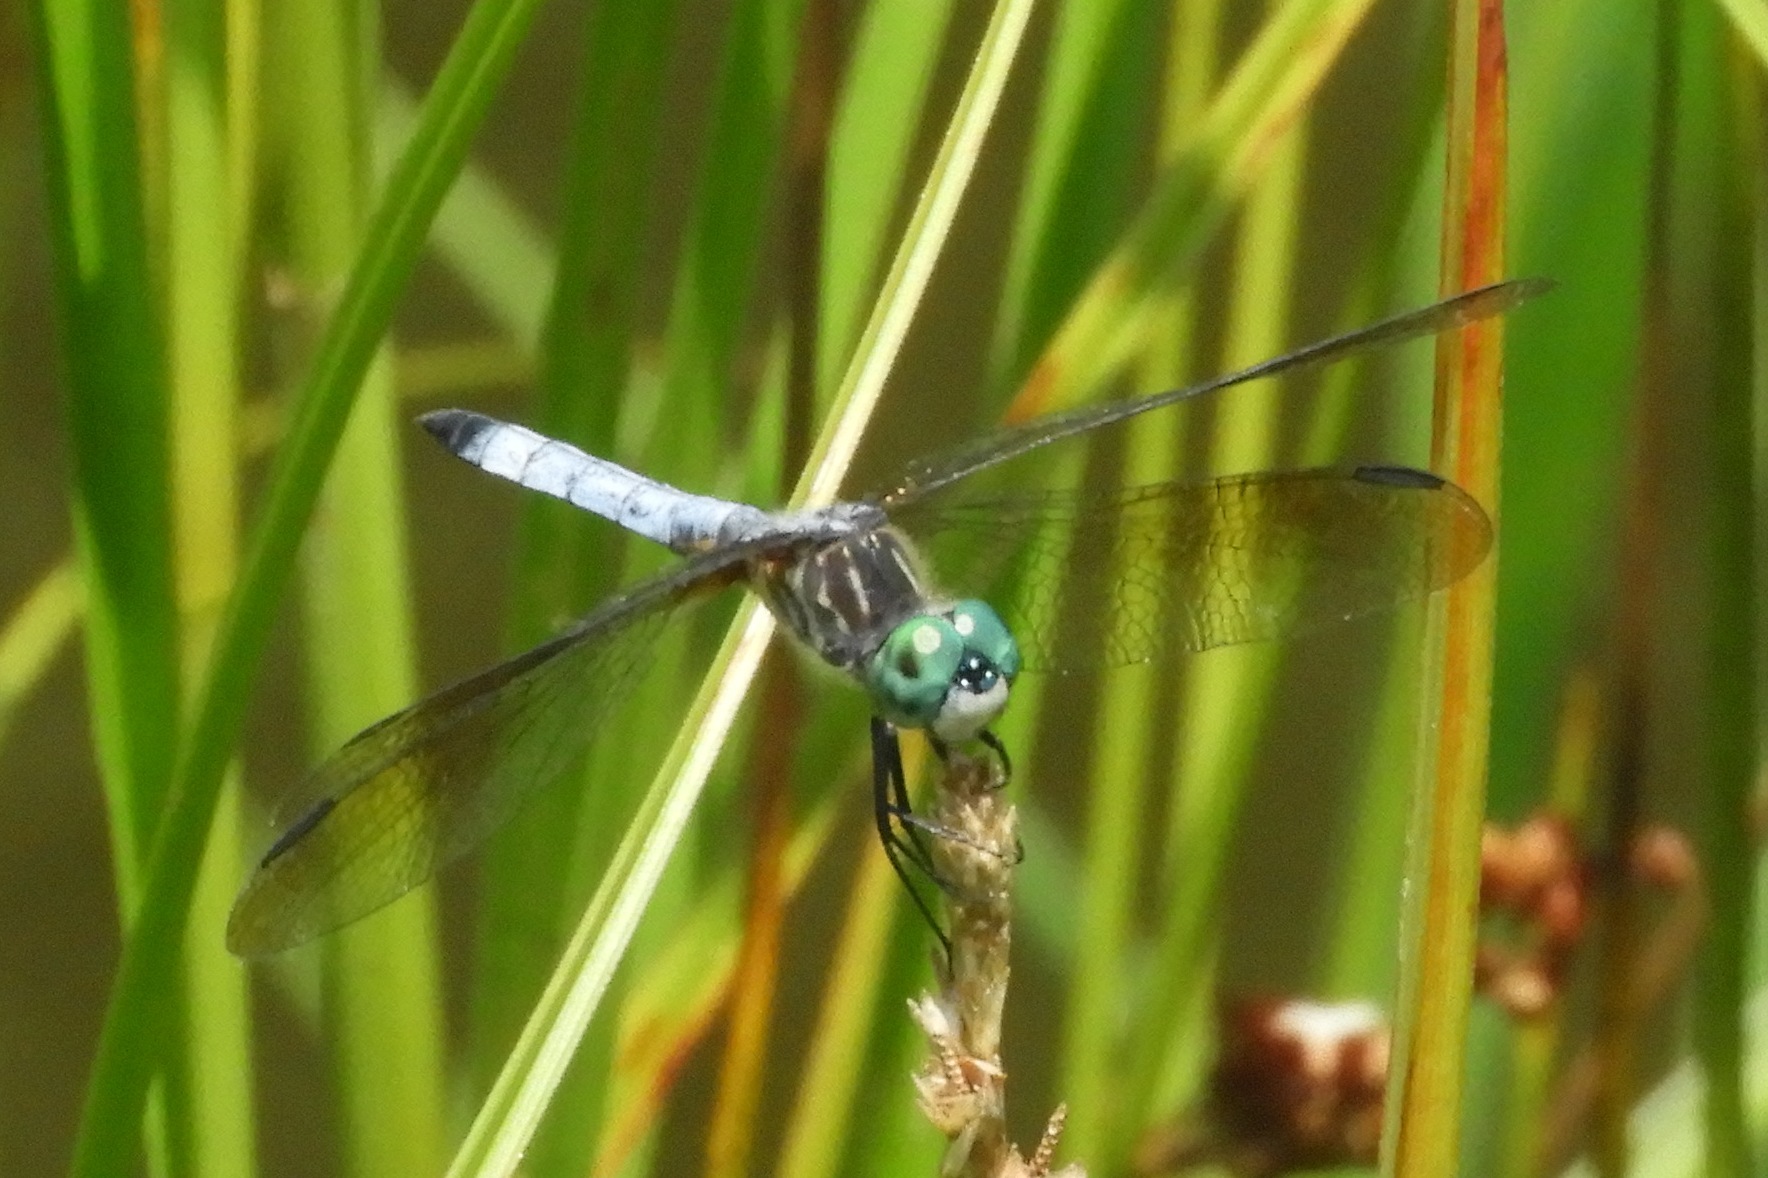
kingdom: Animalia
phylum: Arthropoda
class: Insecta
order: Odonata
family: Libellulidae
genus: Pachydiplax
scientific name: Pachydiplax longipennis
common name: Blue dasher
